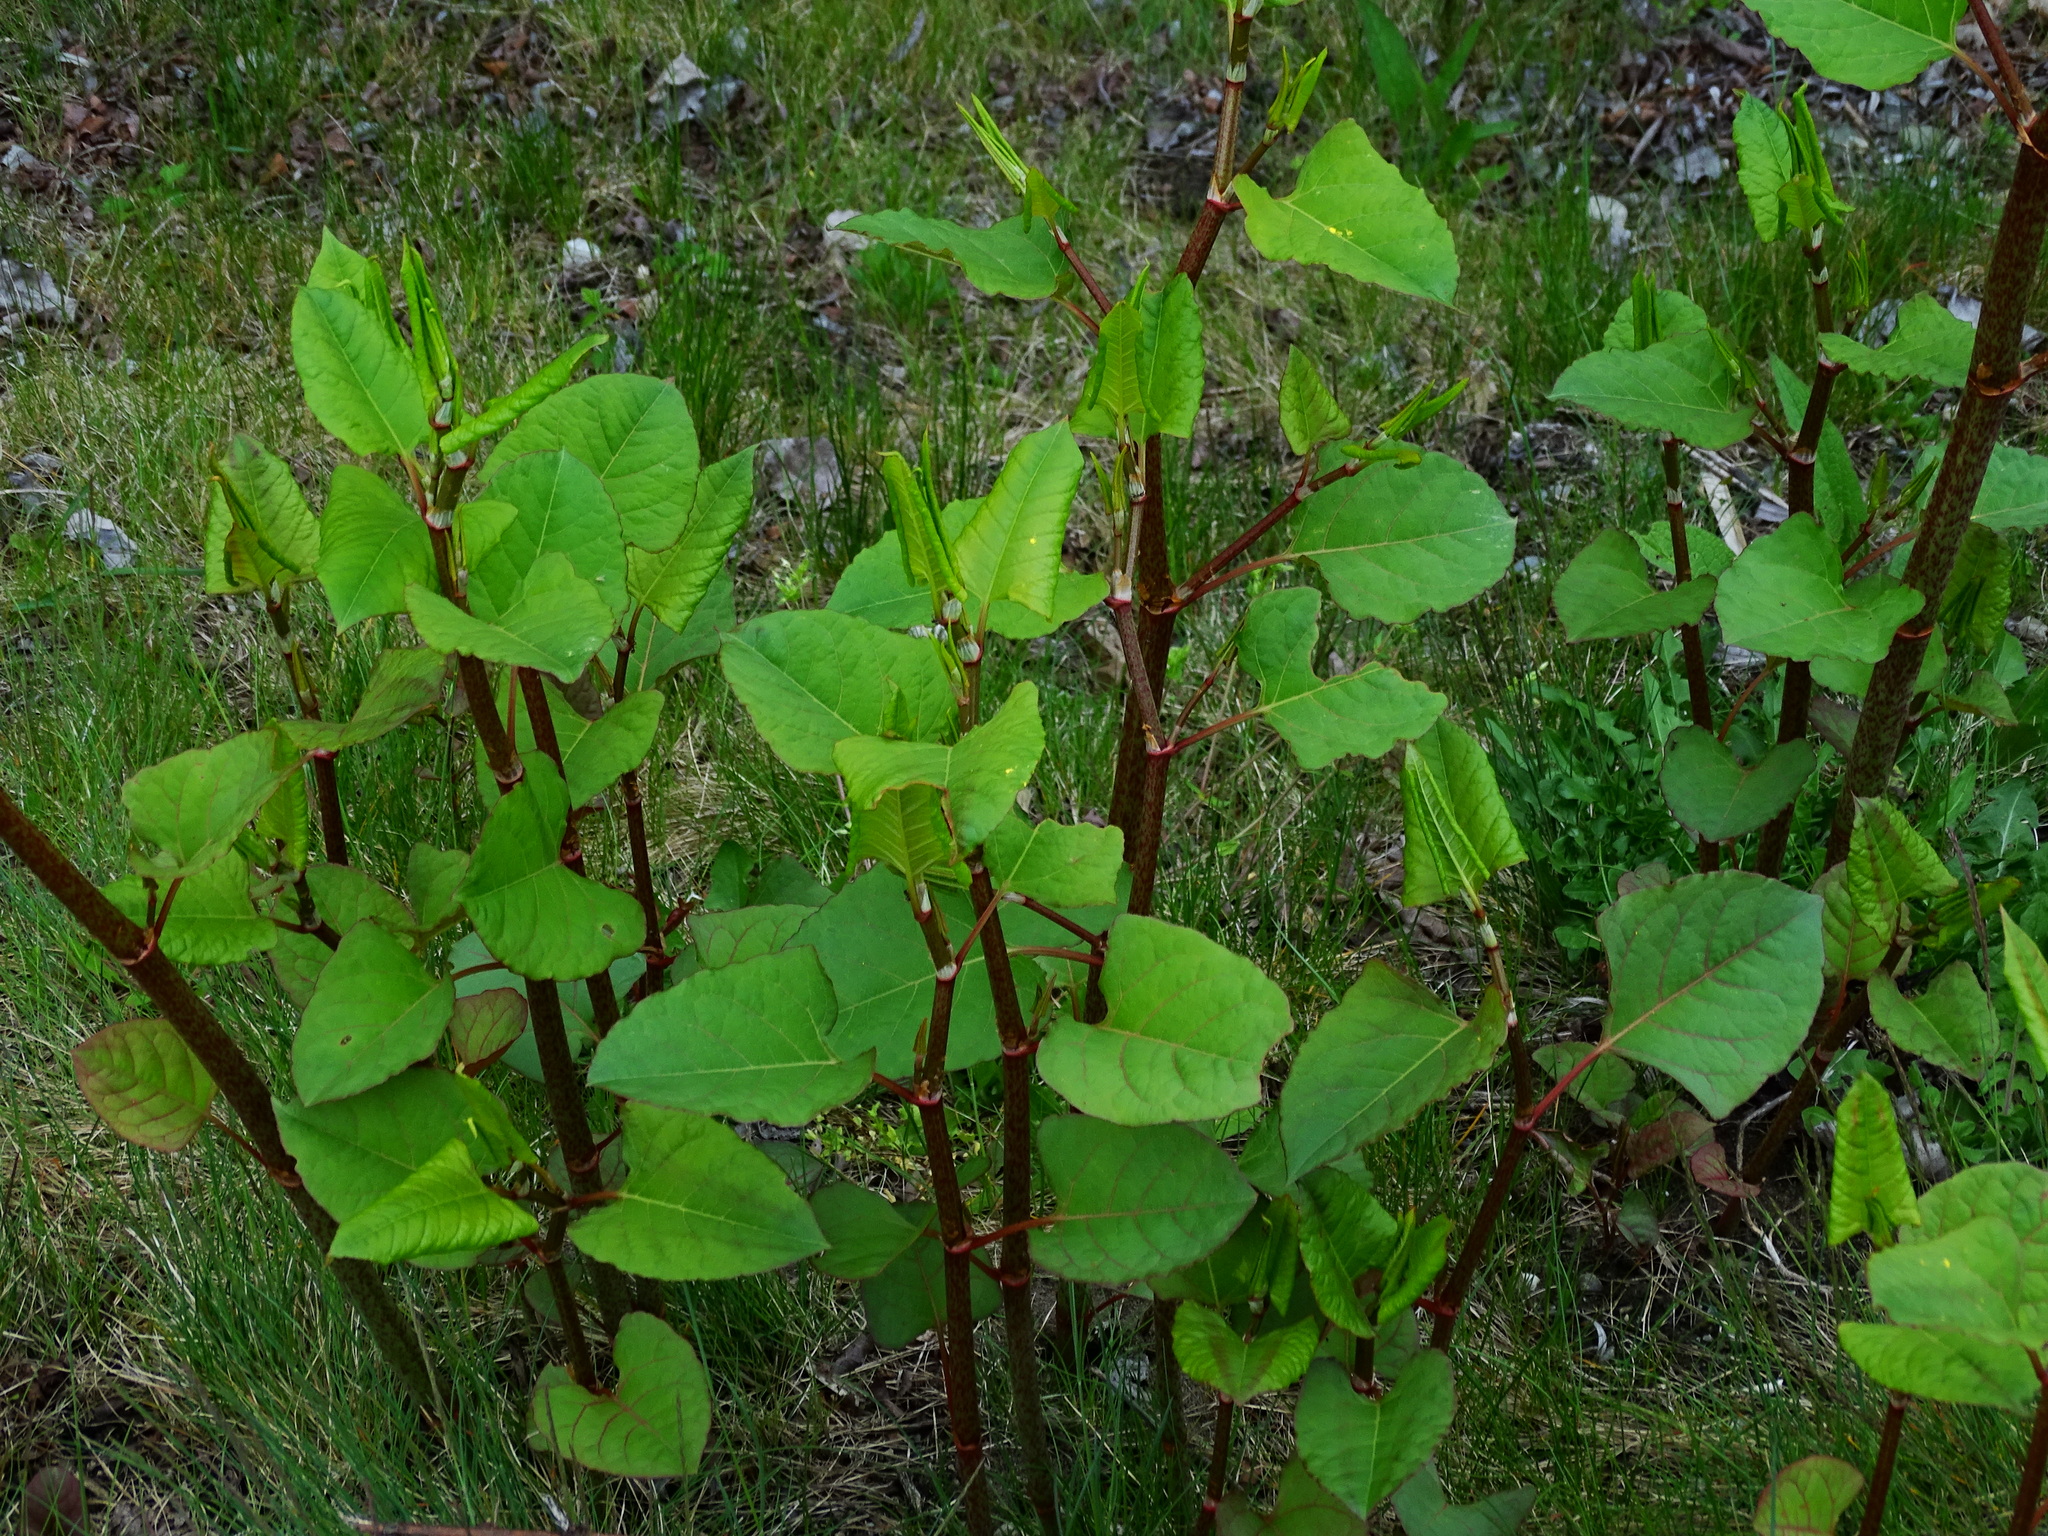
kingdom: Plantae
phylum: Tracheophyta
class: Magnoliopsida
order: Caryophyllales
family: Polygonaceae
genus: Reynoutria
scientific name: Reynoutria japonica
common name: Japanese knotweed
